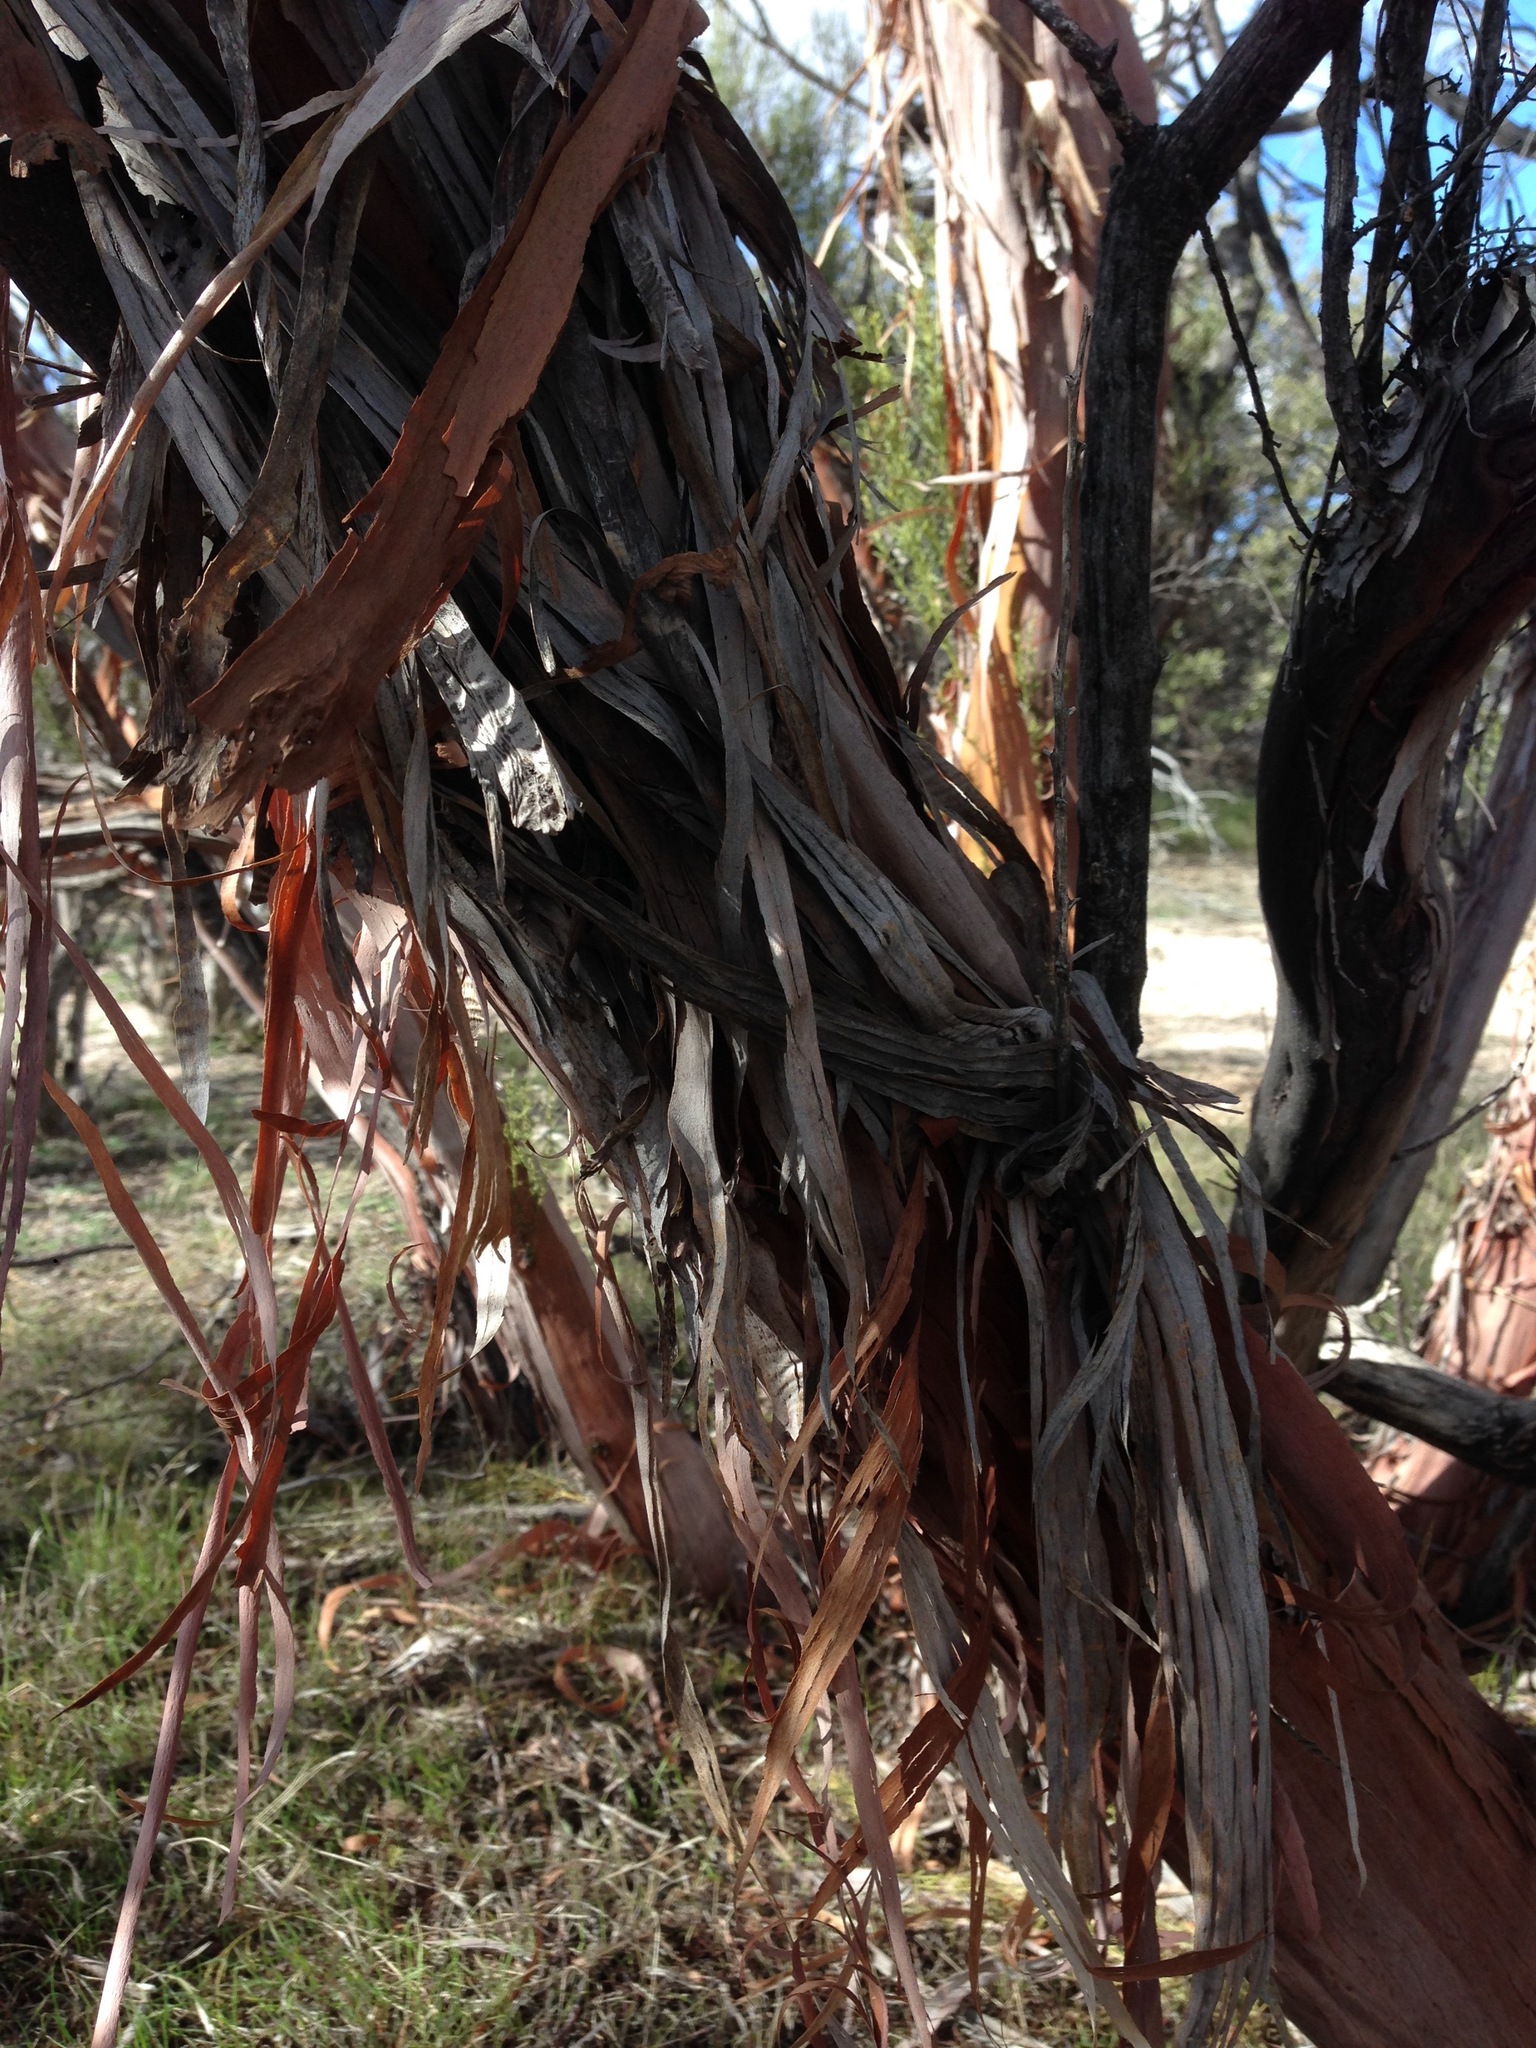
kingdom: Plantae
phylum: Tracheophyta
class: Magnoliopsida
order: Rosales
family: Rosaceae
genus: Adenostoma
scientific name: Adenostoma sparsifolium
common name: Red shank
